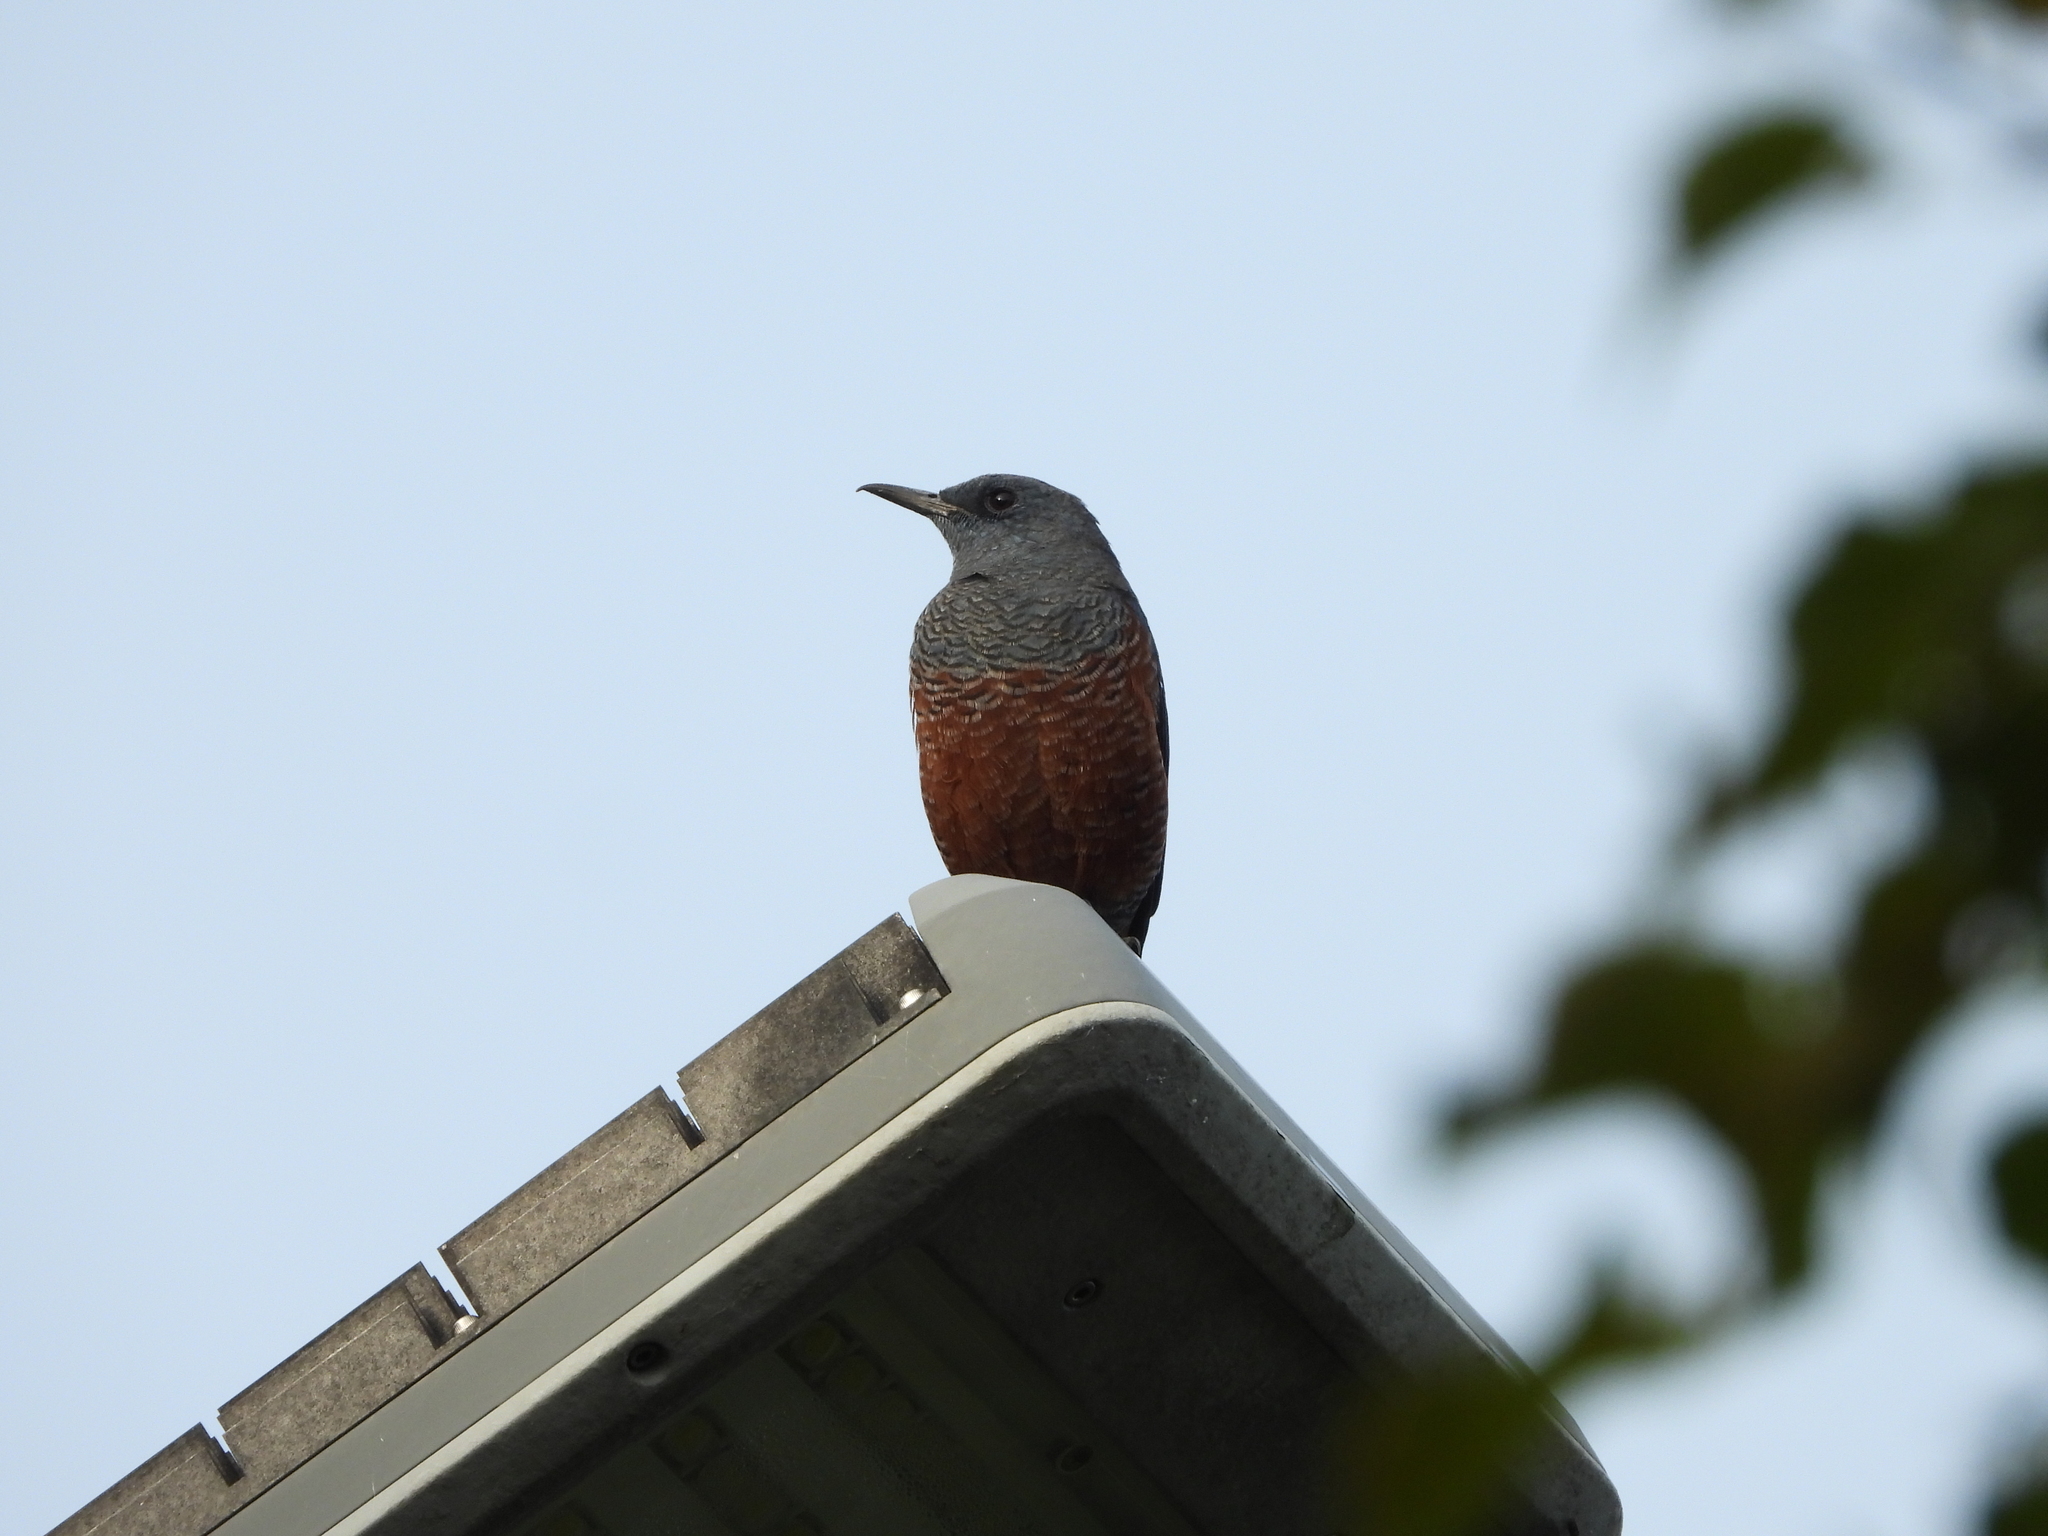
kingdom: Animalia
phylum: Chordata
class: Aves
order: Passeriformes
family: Muscicapidae
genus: Monticola
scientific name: Monticola solitarius
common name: Blue rock thrush
